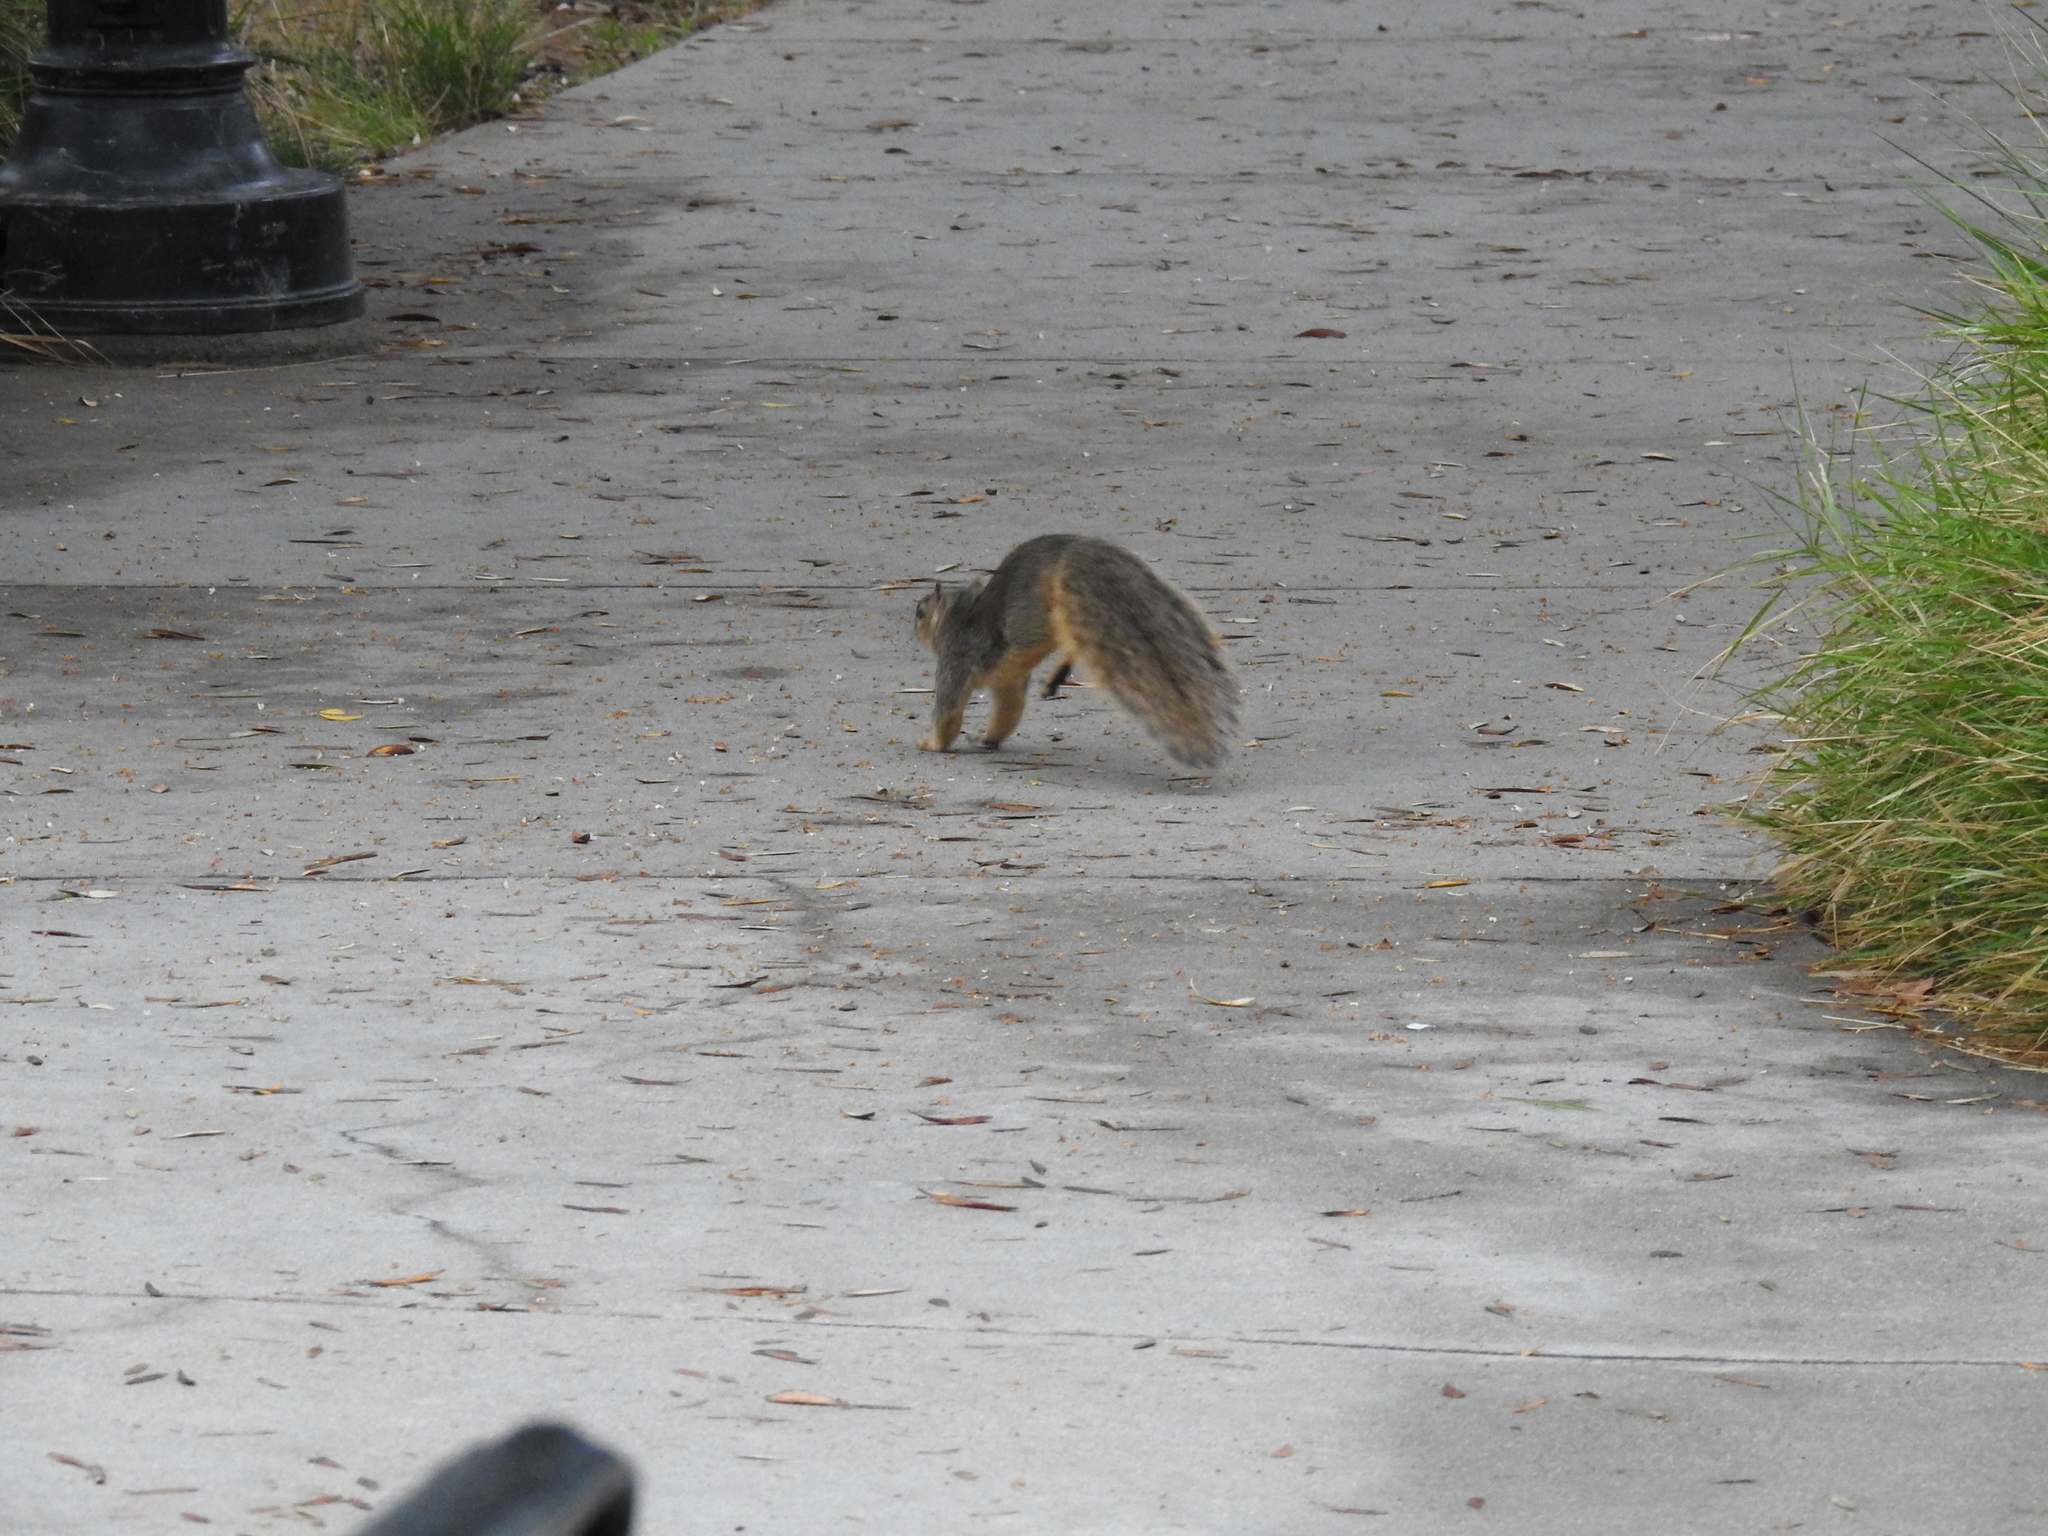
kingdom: Animalia
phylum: Chordata
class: Mammalia
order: Rodentia
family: Sciuridae
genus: Sciurus
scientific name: Sciurus niger
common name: Fox squirrel
